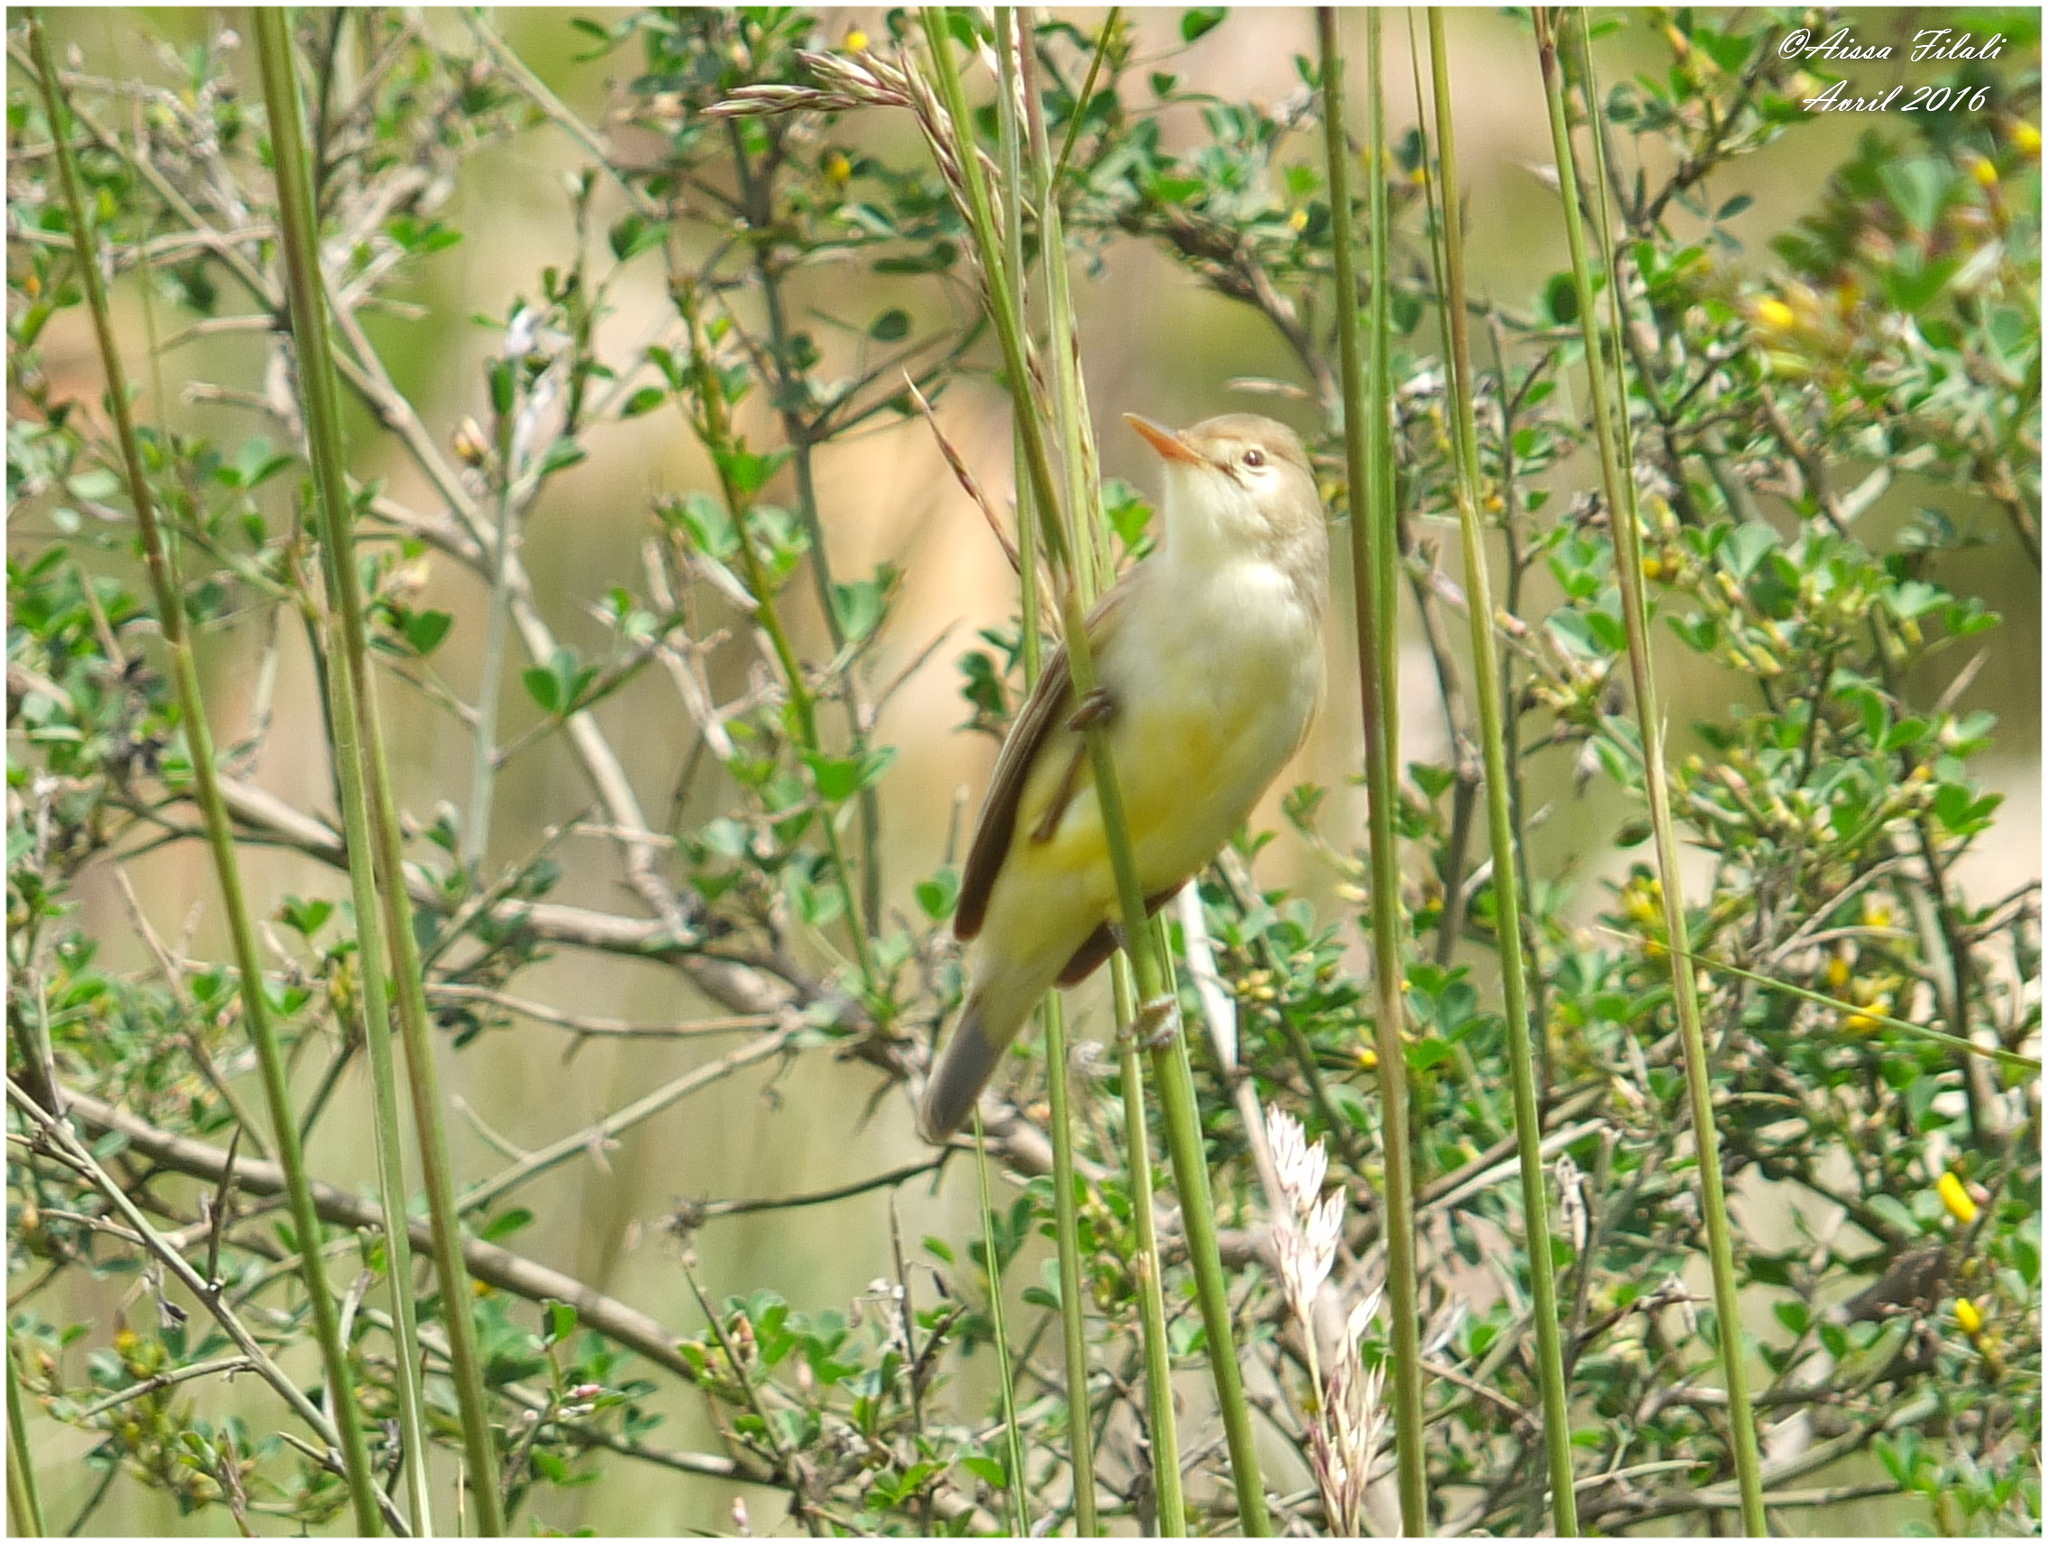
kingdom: Animalia
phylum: Chordata
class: Aves
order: Passeriformes
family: Acrocephalidae
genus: Hippolais
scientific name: Hippolais polyglotta
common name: Melodious warbler
